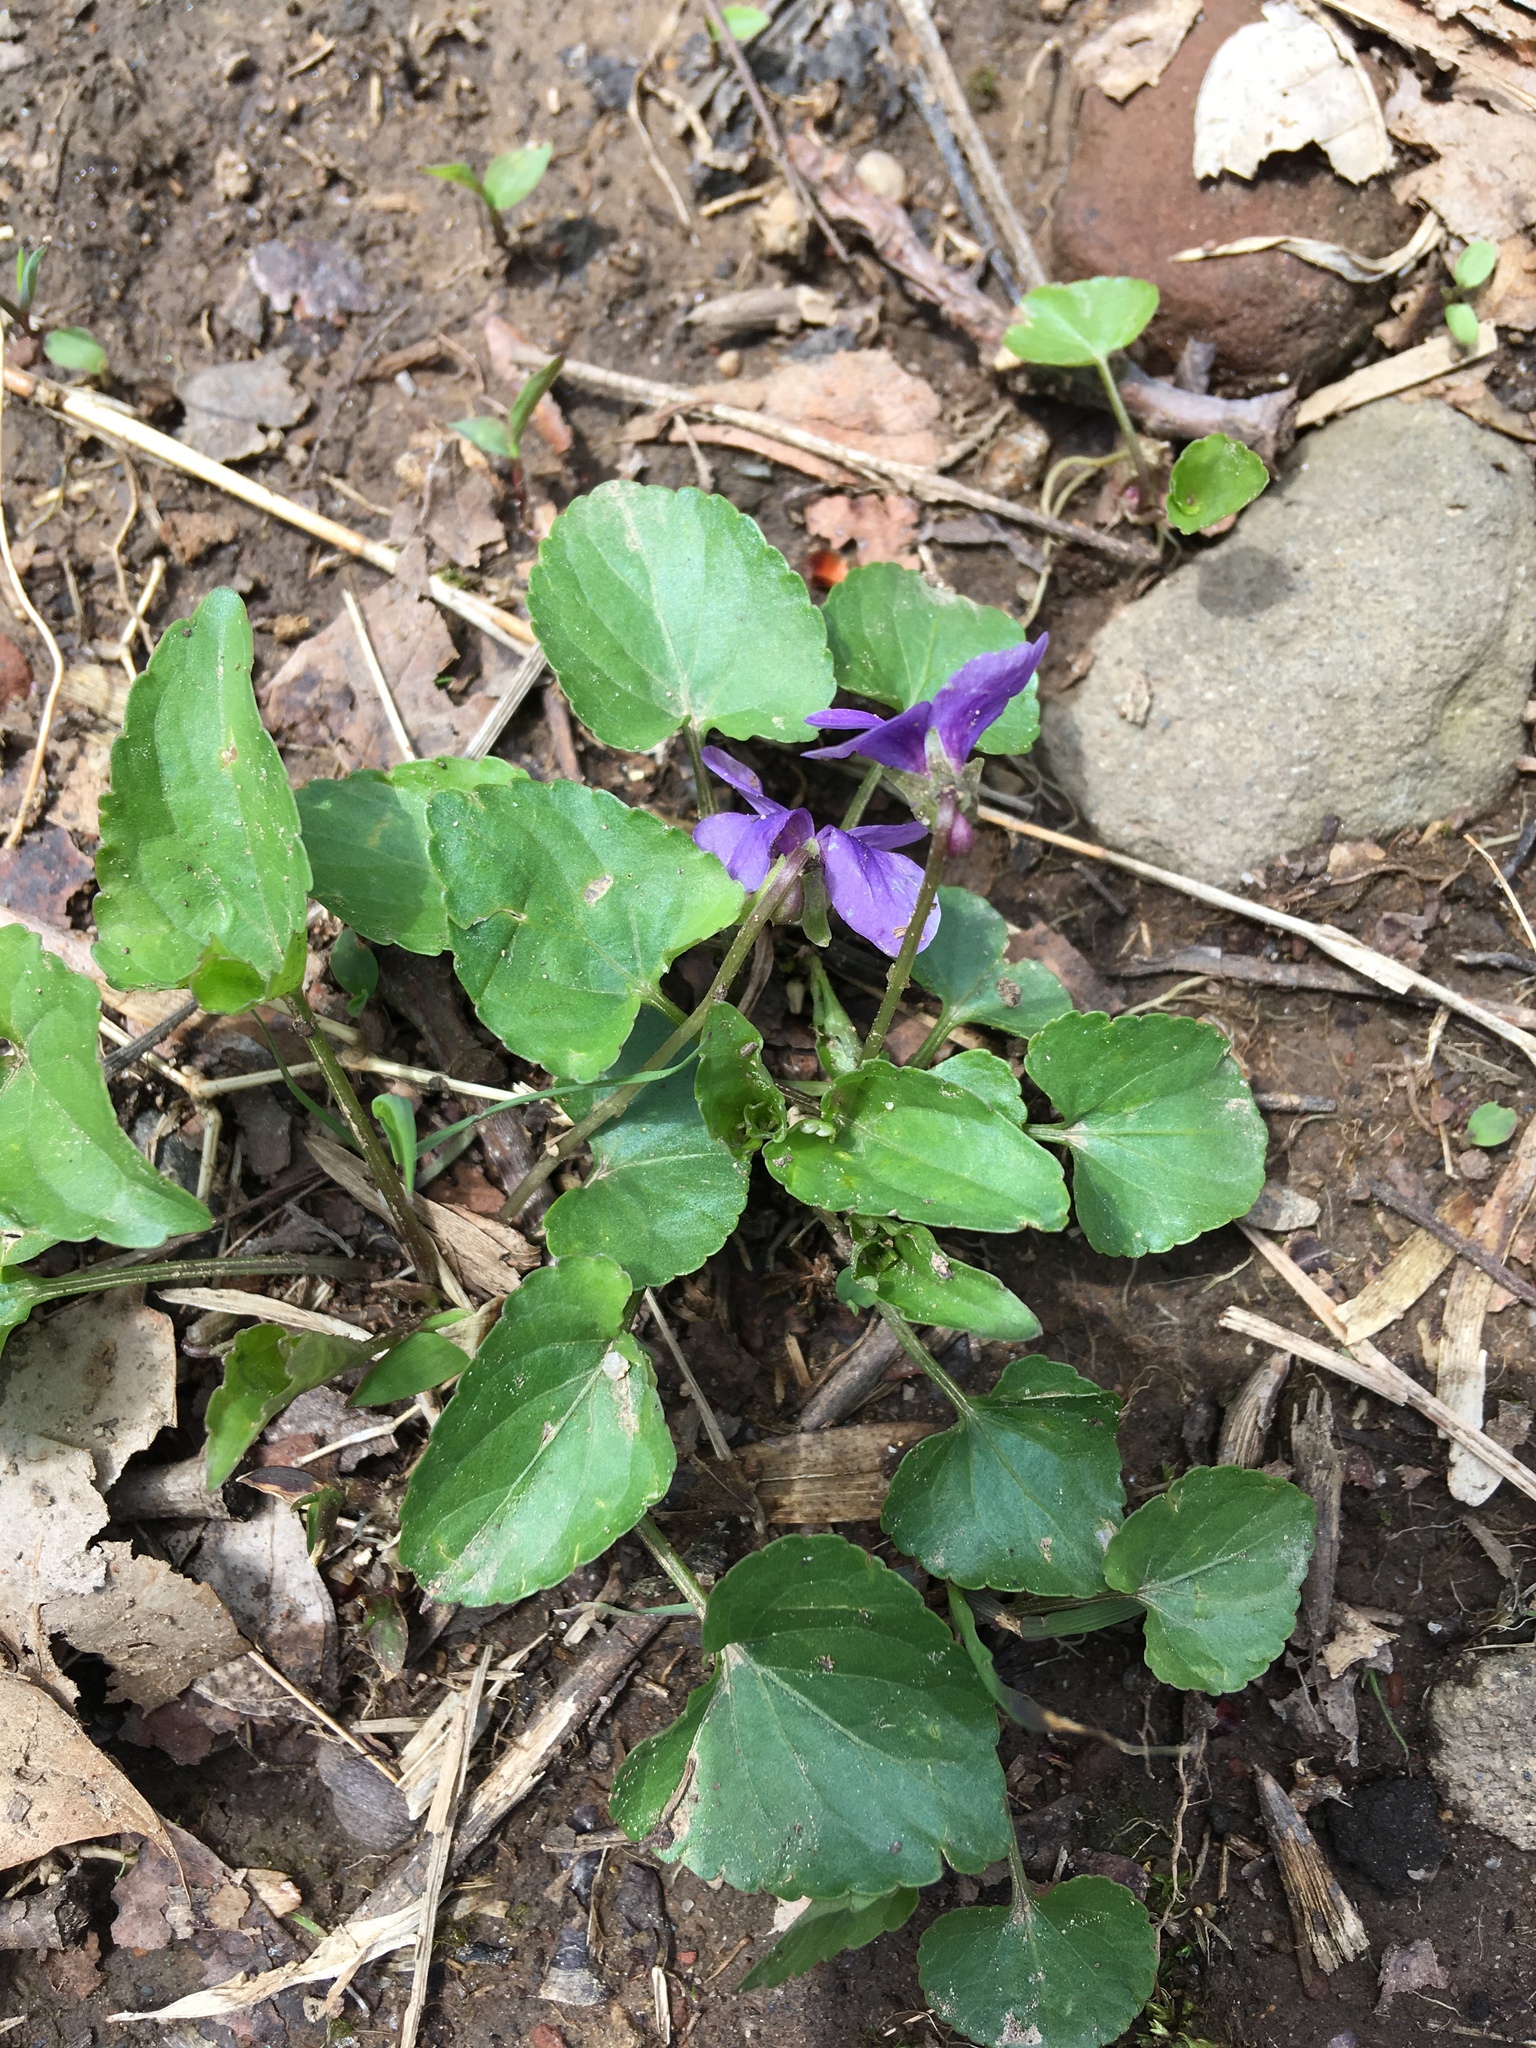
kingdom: Plantae
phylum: Tracheophyta
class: Magnoliopsida
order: Malpighiales
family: Violaceae
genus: Viola
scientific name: Viola sororia
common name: Dooryard violet
